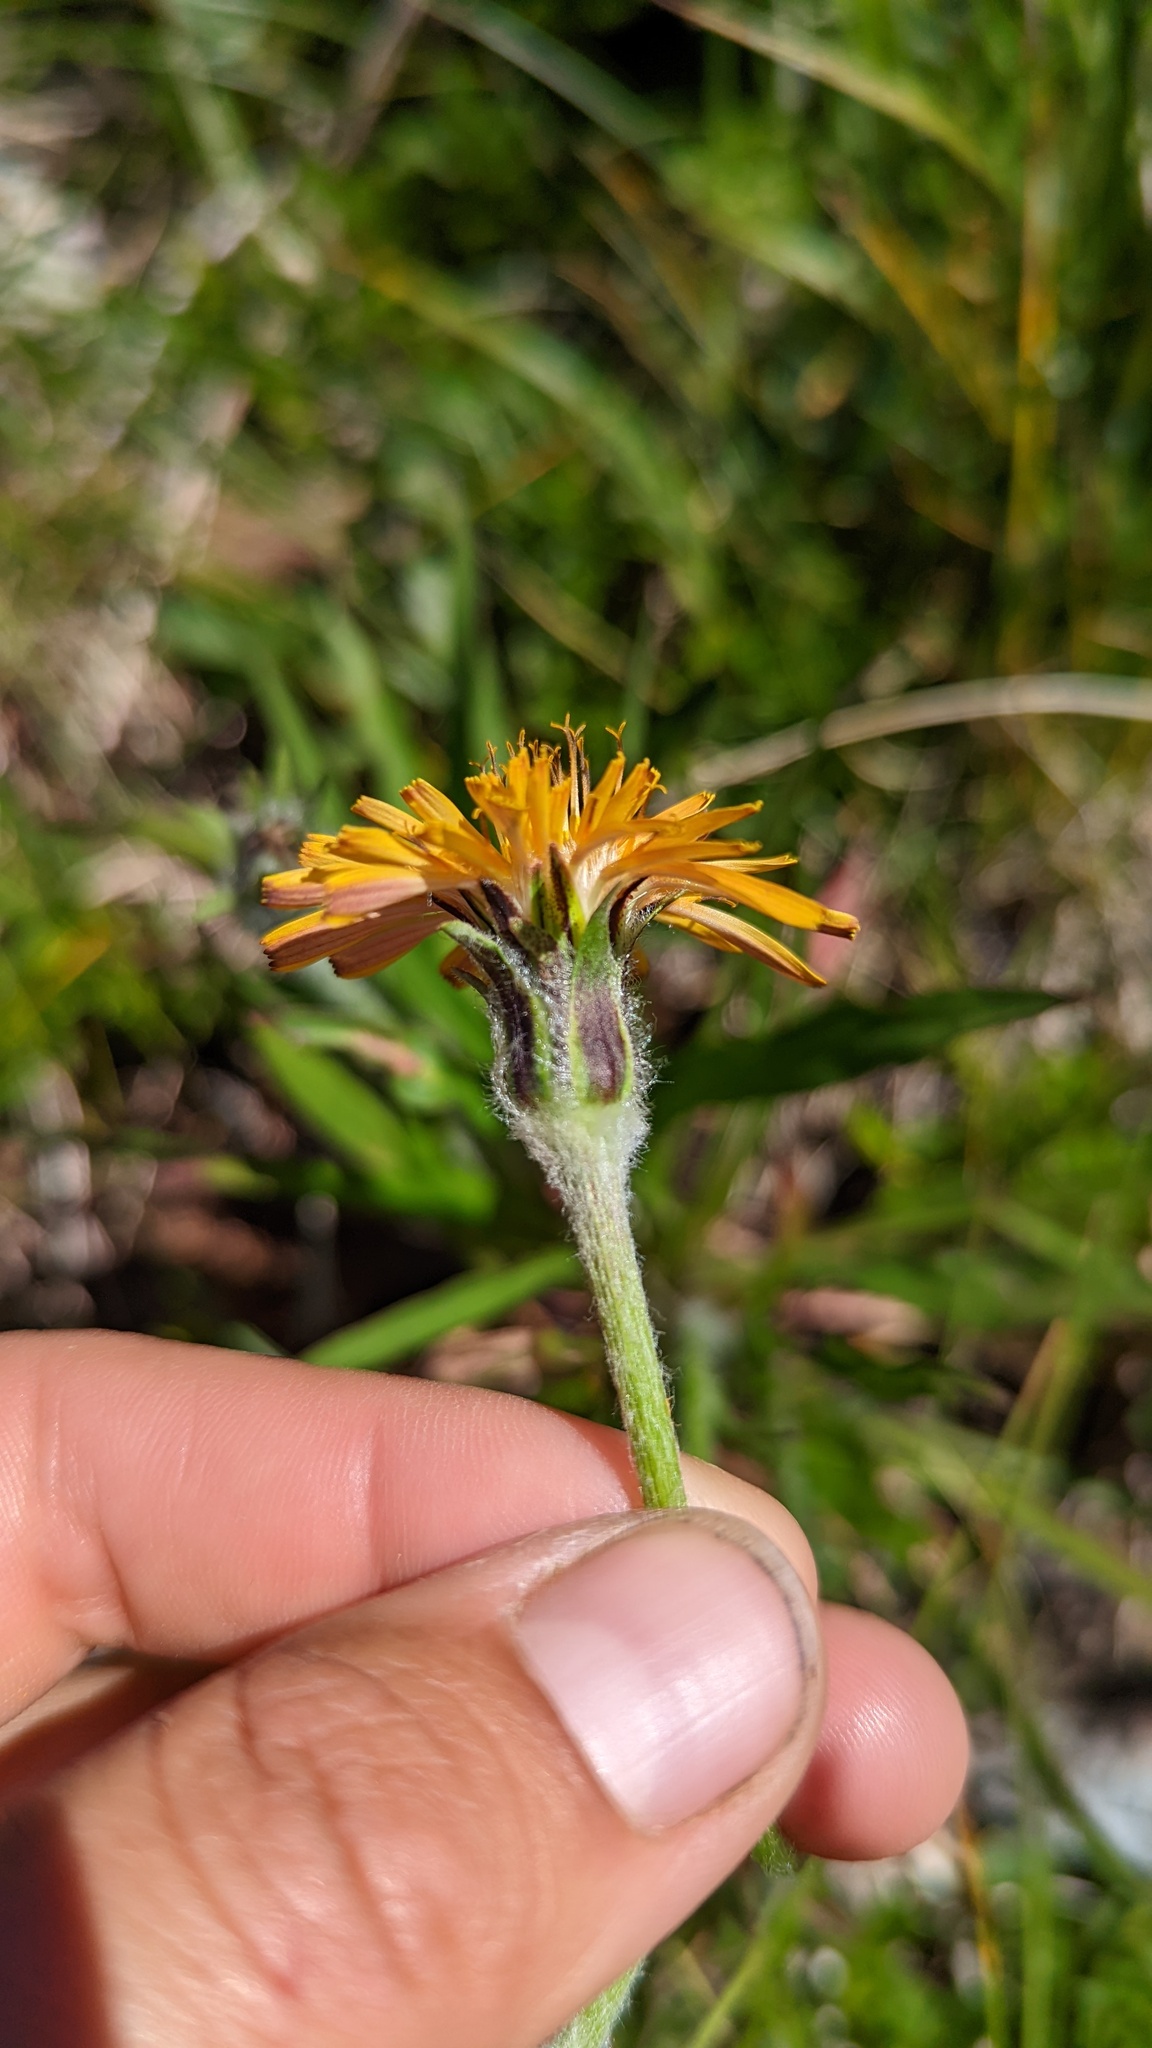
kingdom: Plantae
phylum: Tracheophyta
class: Magnoliopsida
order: Asterales
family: Asteraceae
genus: Agoseris
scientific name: Agoseris aurantiaca
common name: Mountain agoseris
